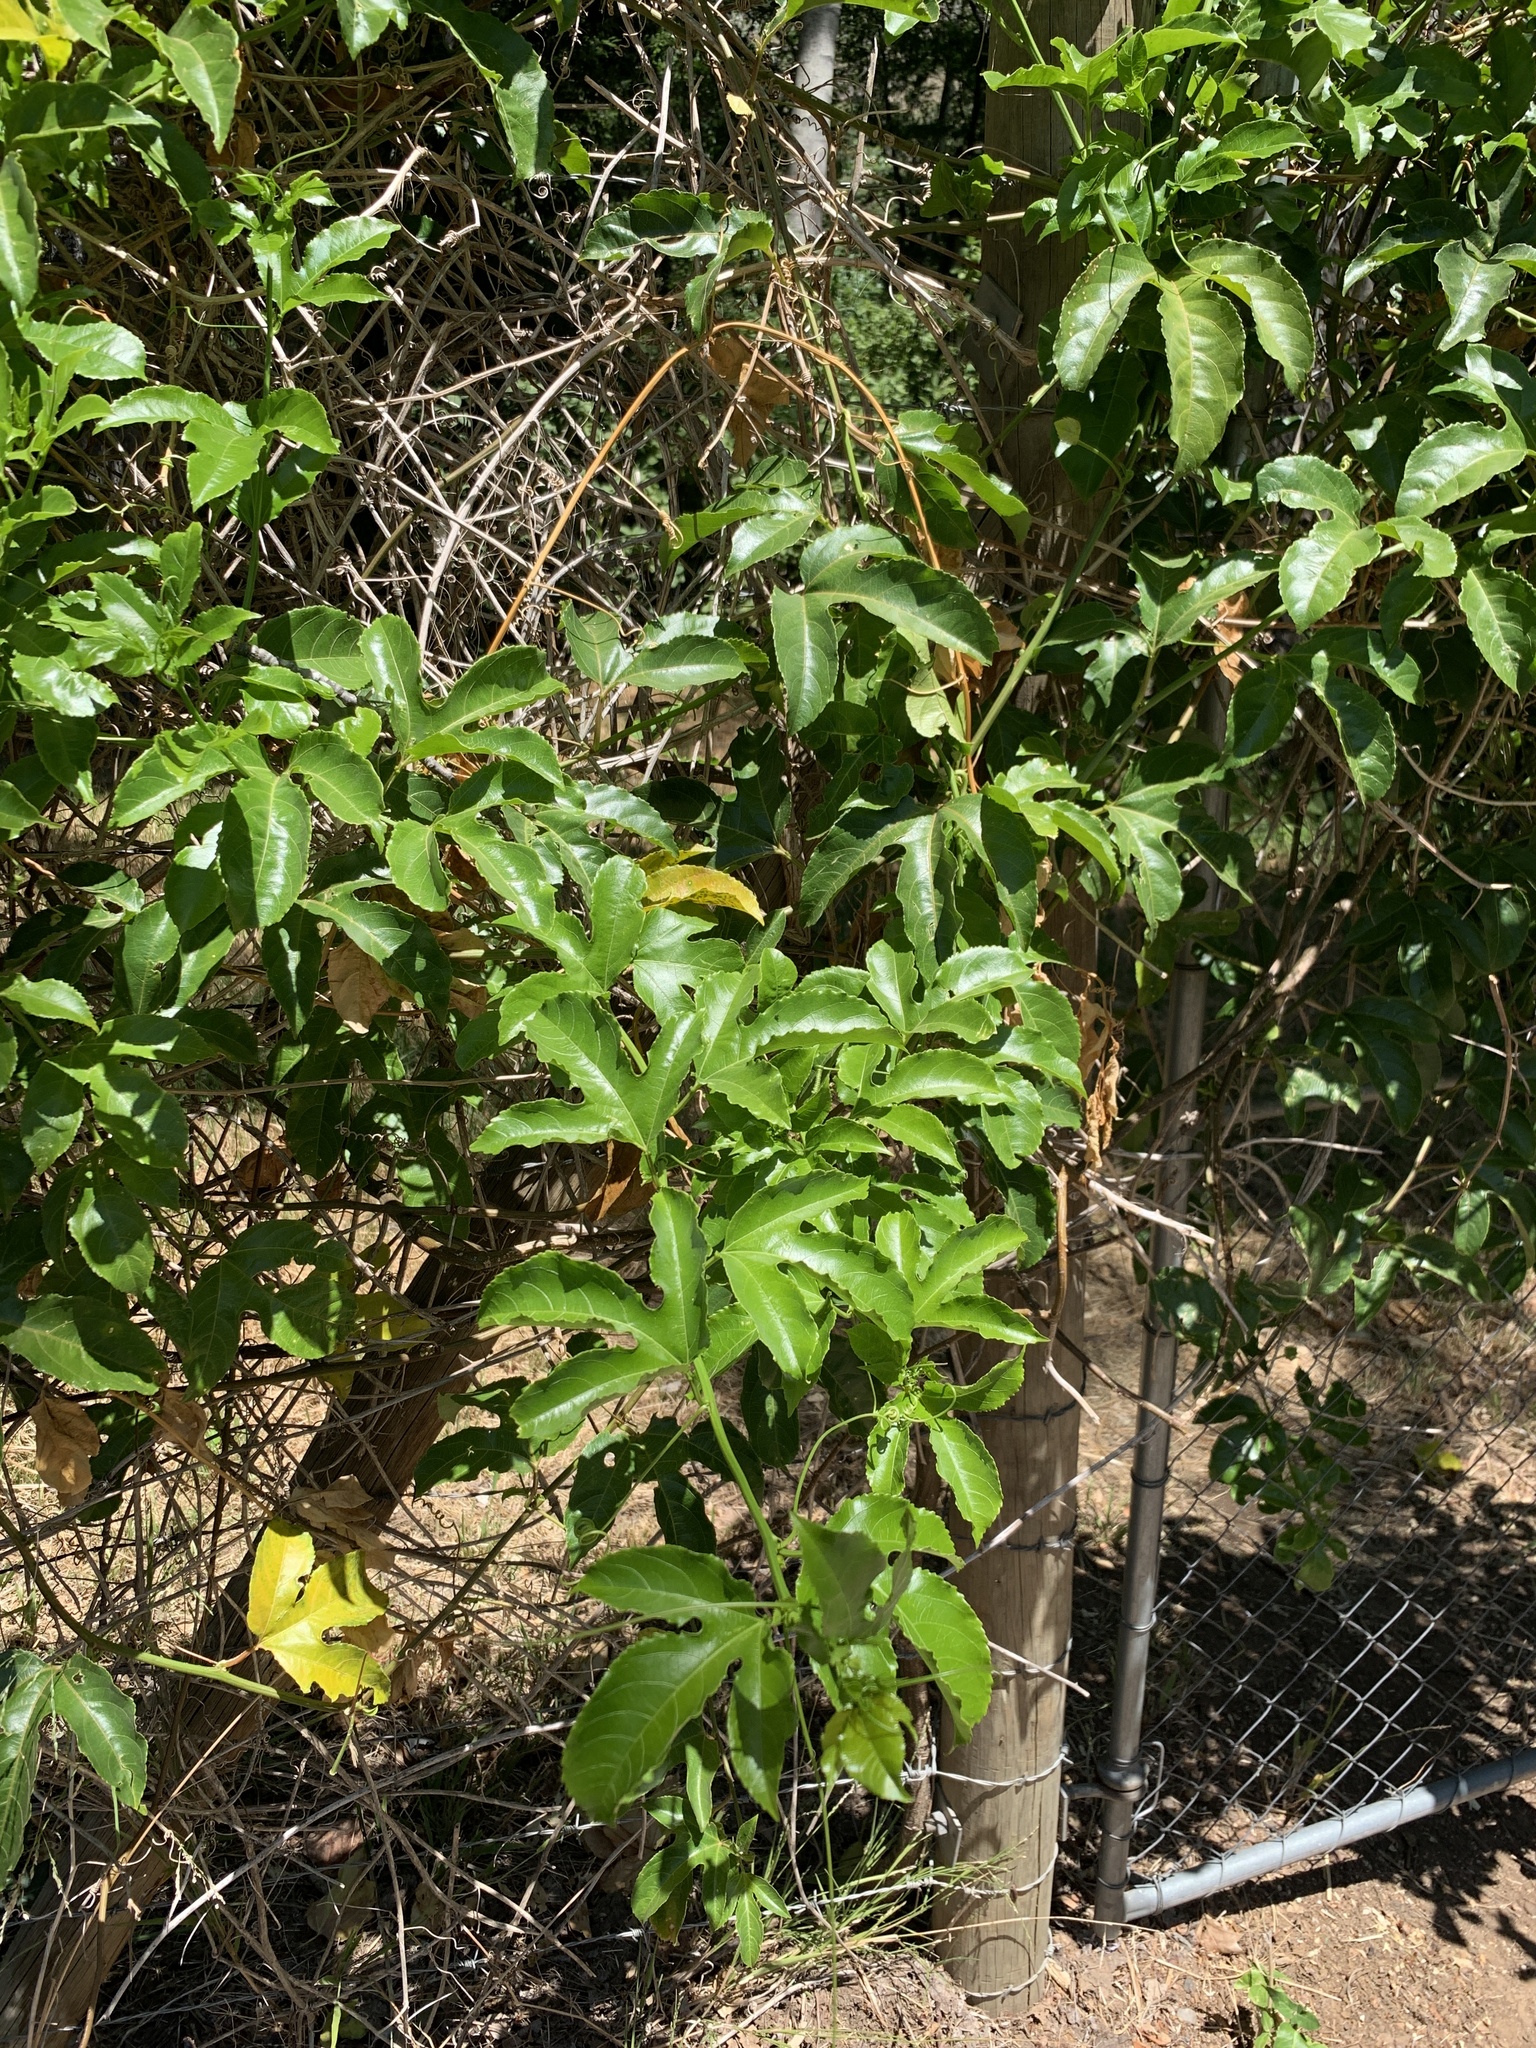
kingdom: Plantae
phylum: Tracheophyta
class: Magnoliopsida
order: Malpighiales
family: Passifloraceae
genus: Passiflora
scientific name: Passiflora edulis
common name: Purple granadilla
